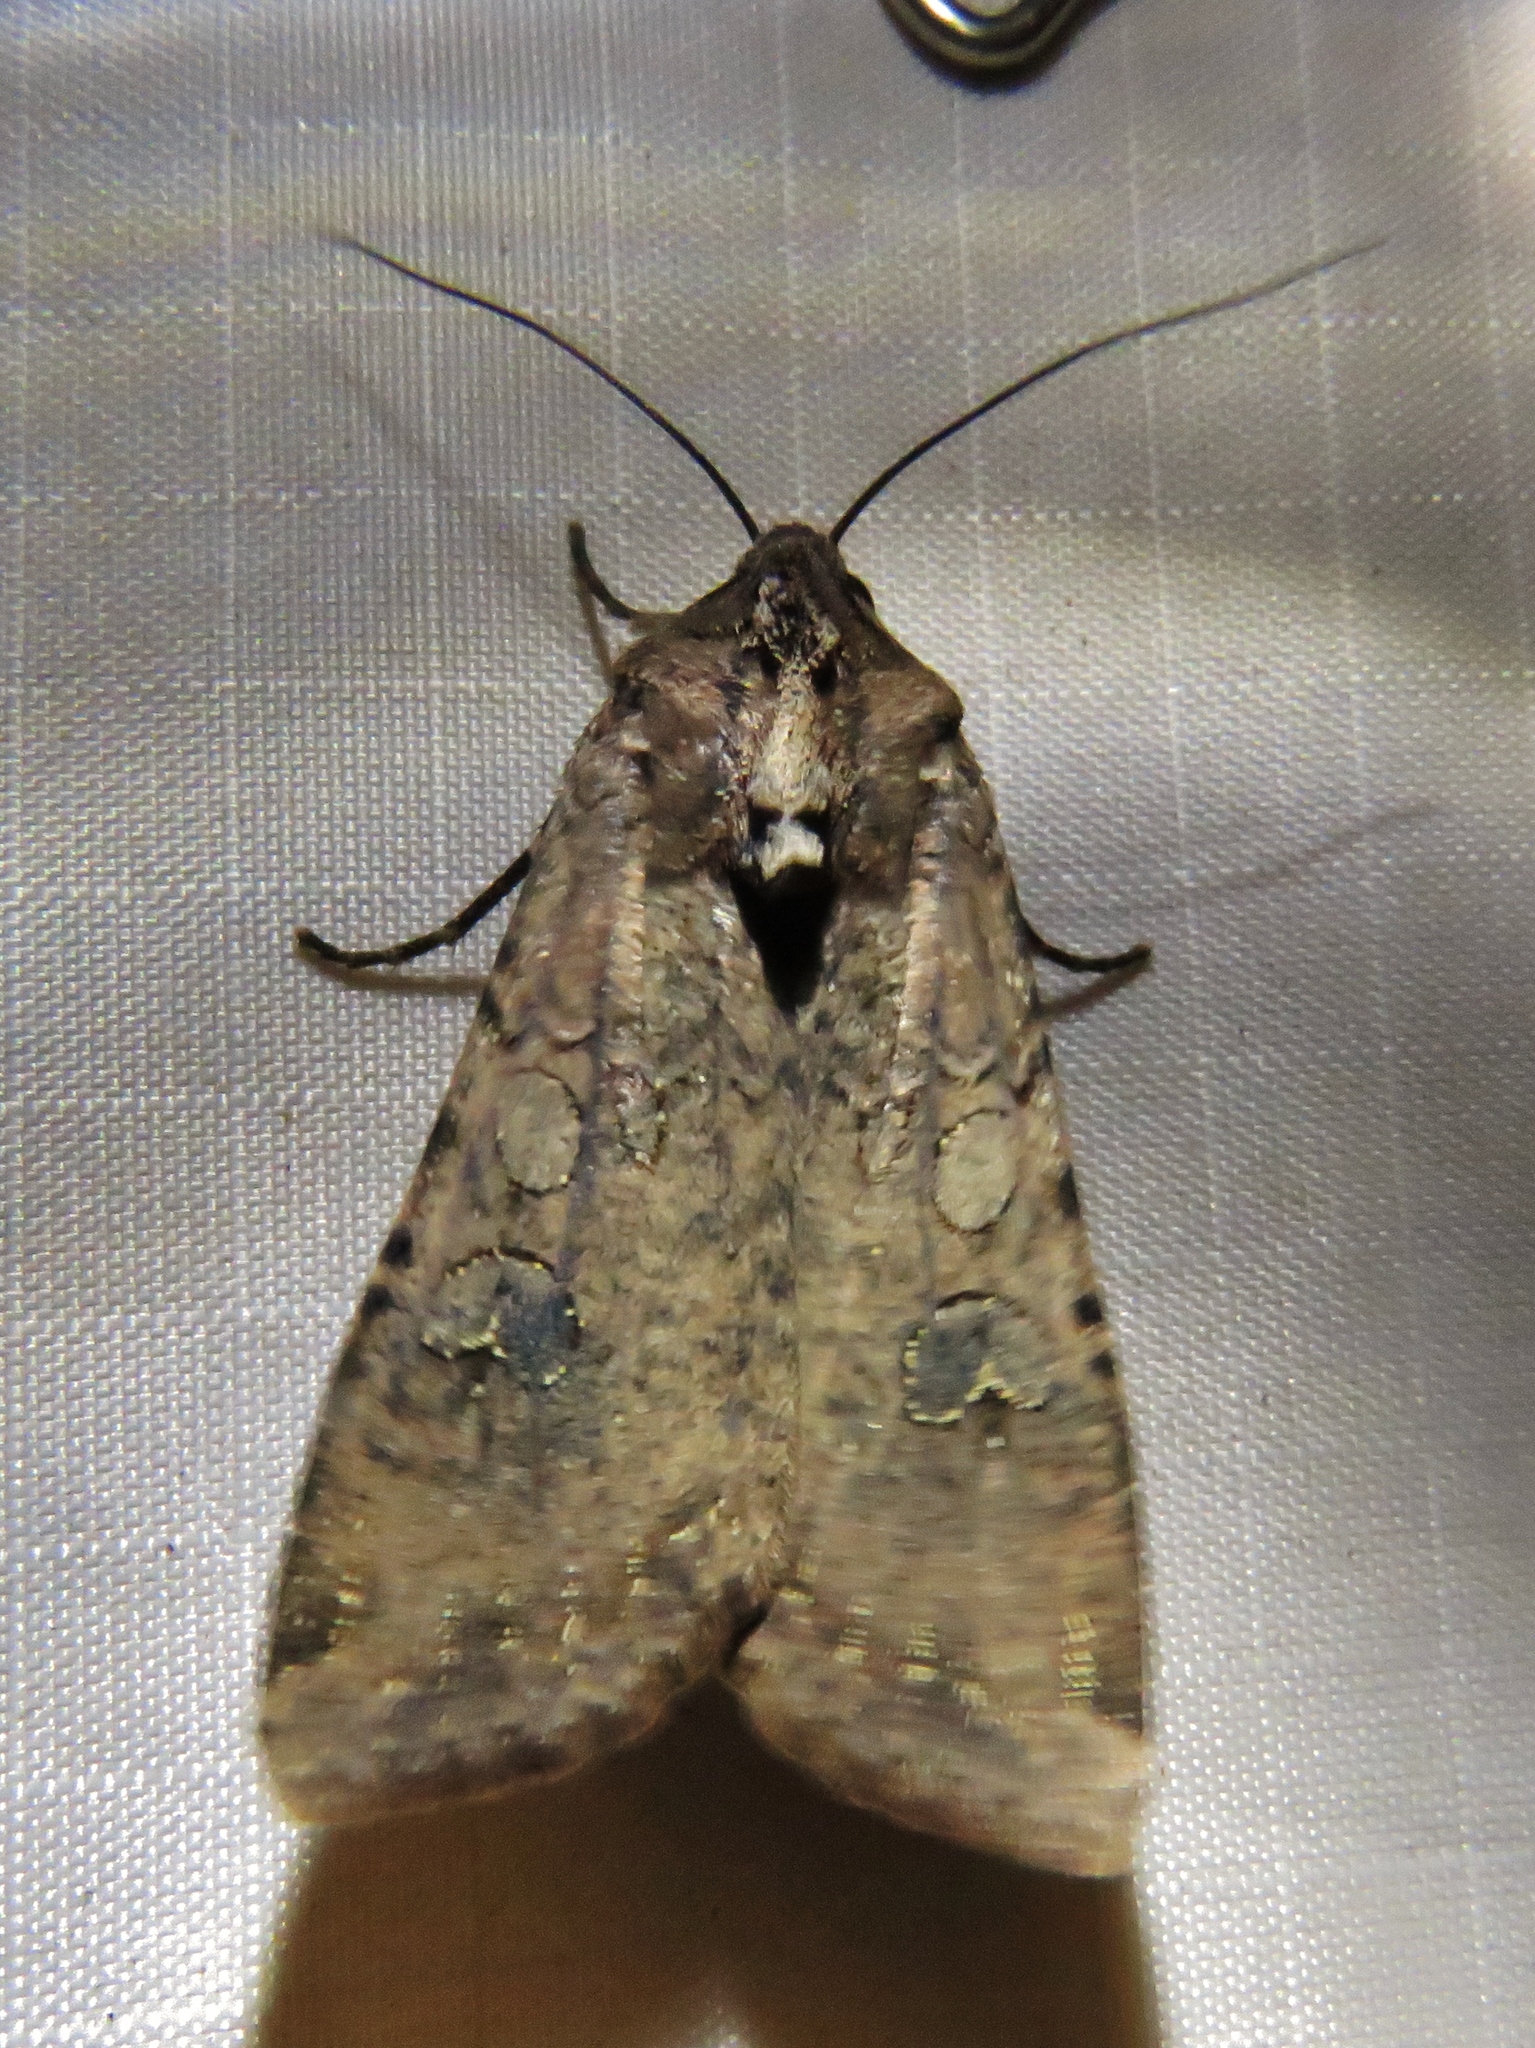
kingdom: Animalia
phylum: Arthropoda
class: Insecta
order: Lepidoptera
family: Noctuidae
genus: Peridroma
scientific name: Peridroma saucia
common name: Pearly underwing
